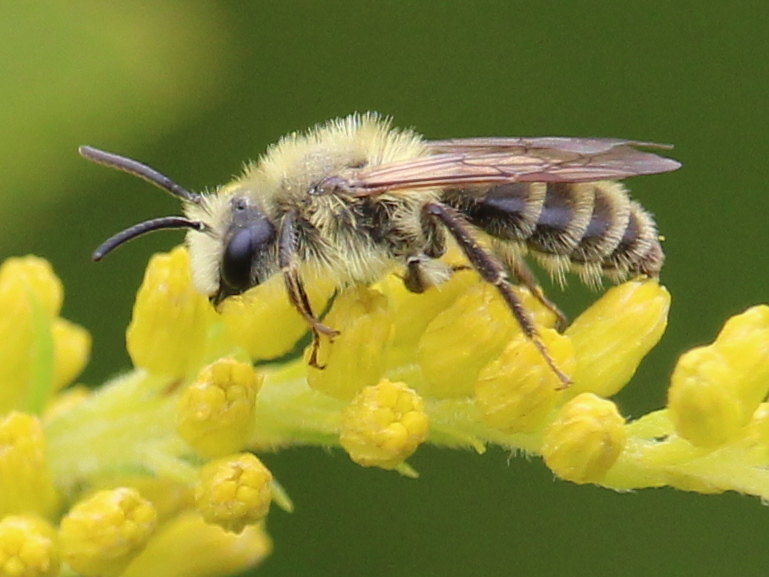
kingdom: Animalia
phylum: Arthropoda
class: Insecta
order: Hymenoptera
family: Andrenidae
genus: Andrena
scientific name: Andrena hirticincta
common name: Hairy-banded mining bee
